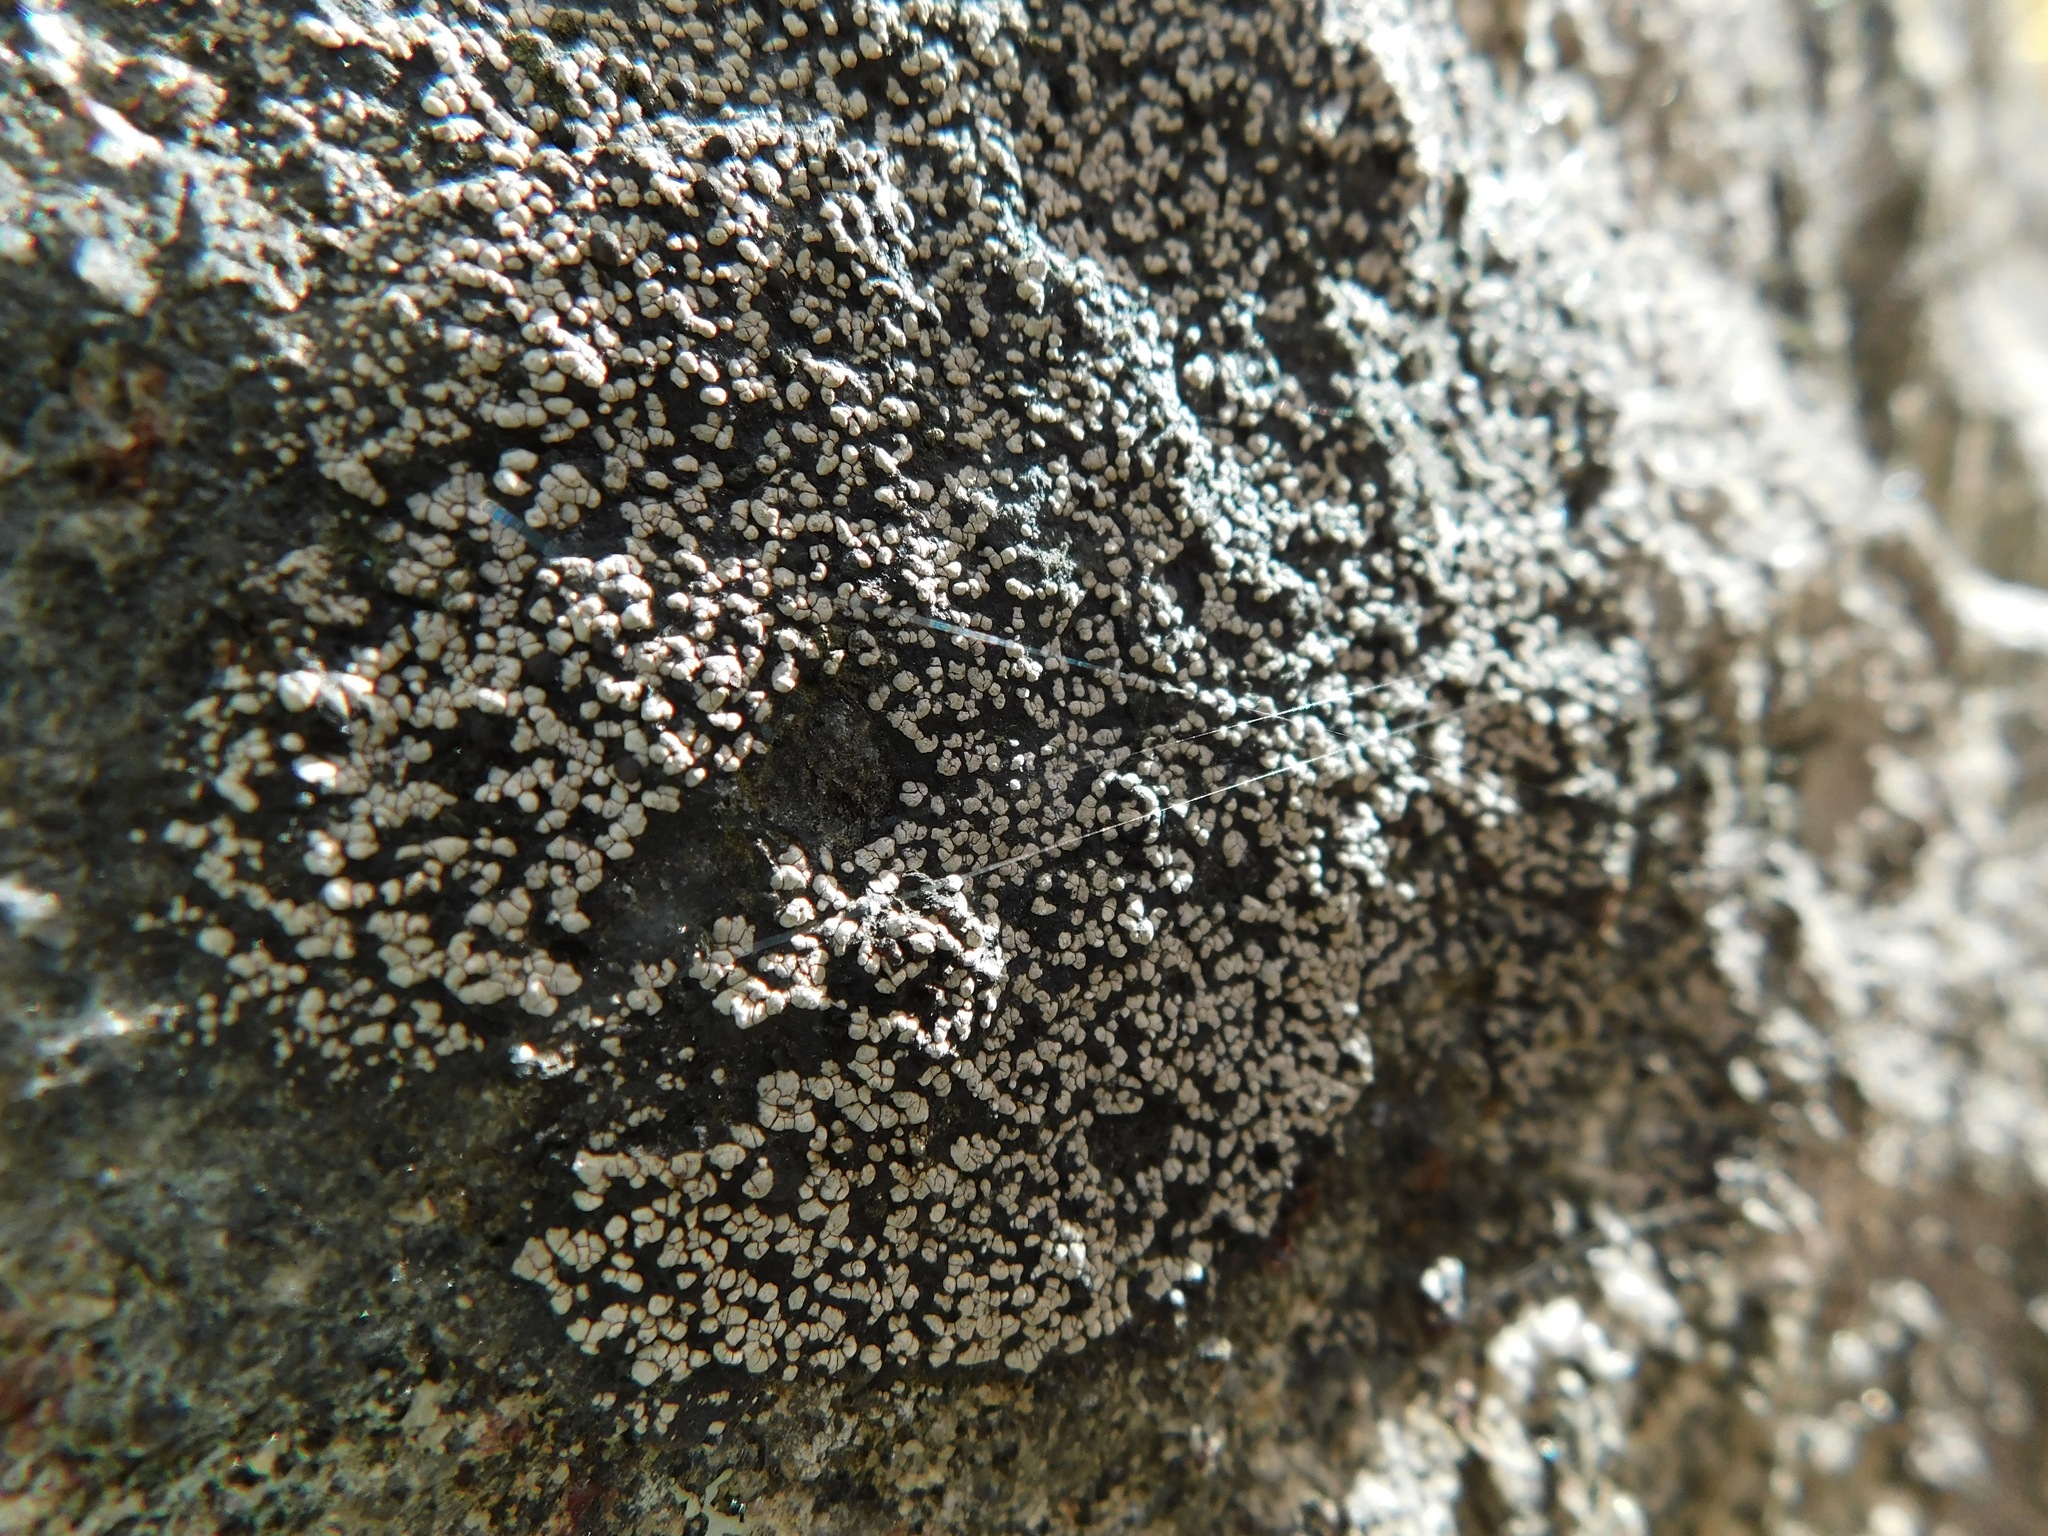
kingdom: Fungi
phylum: Ascomycota
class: Lecanoromycetes
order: Rhizocarpales
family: Rhizocarpaceae
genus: Rhizocarpon
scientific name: Rhizocarpon grande
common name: Big map lichen
